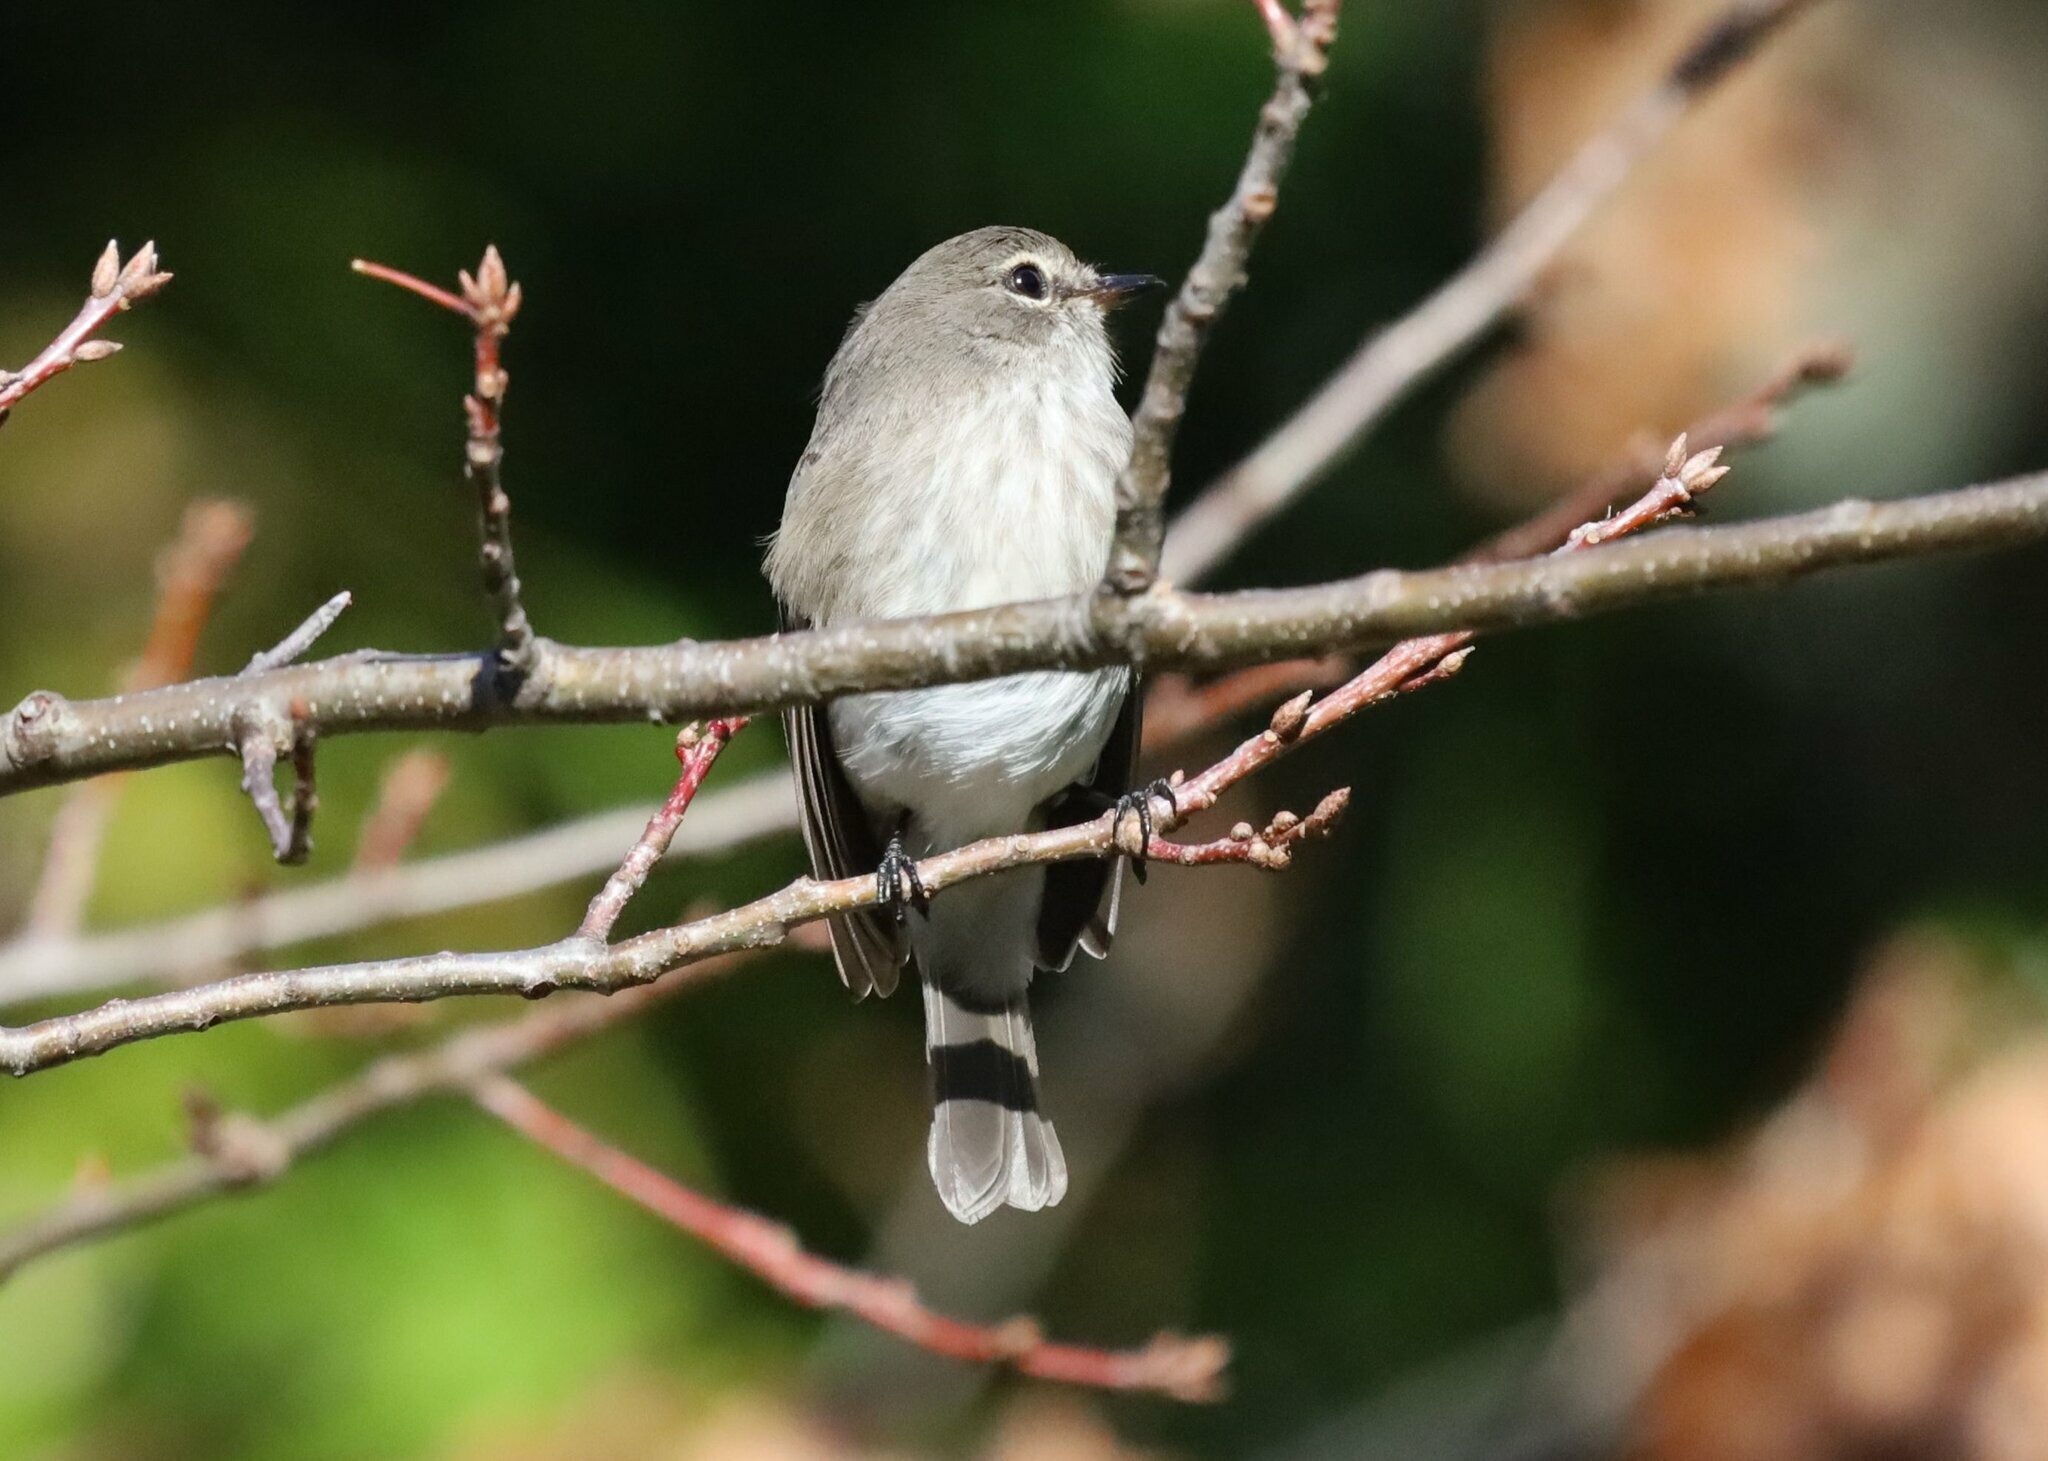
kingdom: Animalia
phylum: Chordata
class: Aves
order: Passeriformes
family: Muscicapidae
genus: Muscicapa
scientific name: Muscicapa adusta
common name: African dusky flycatcher
